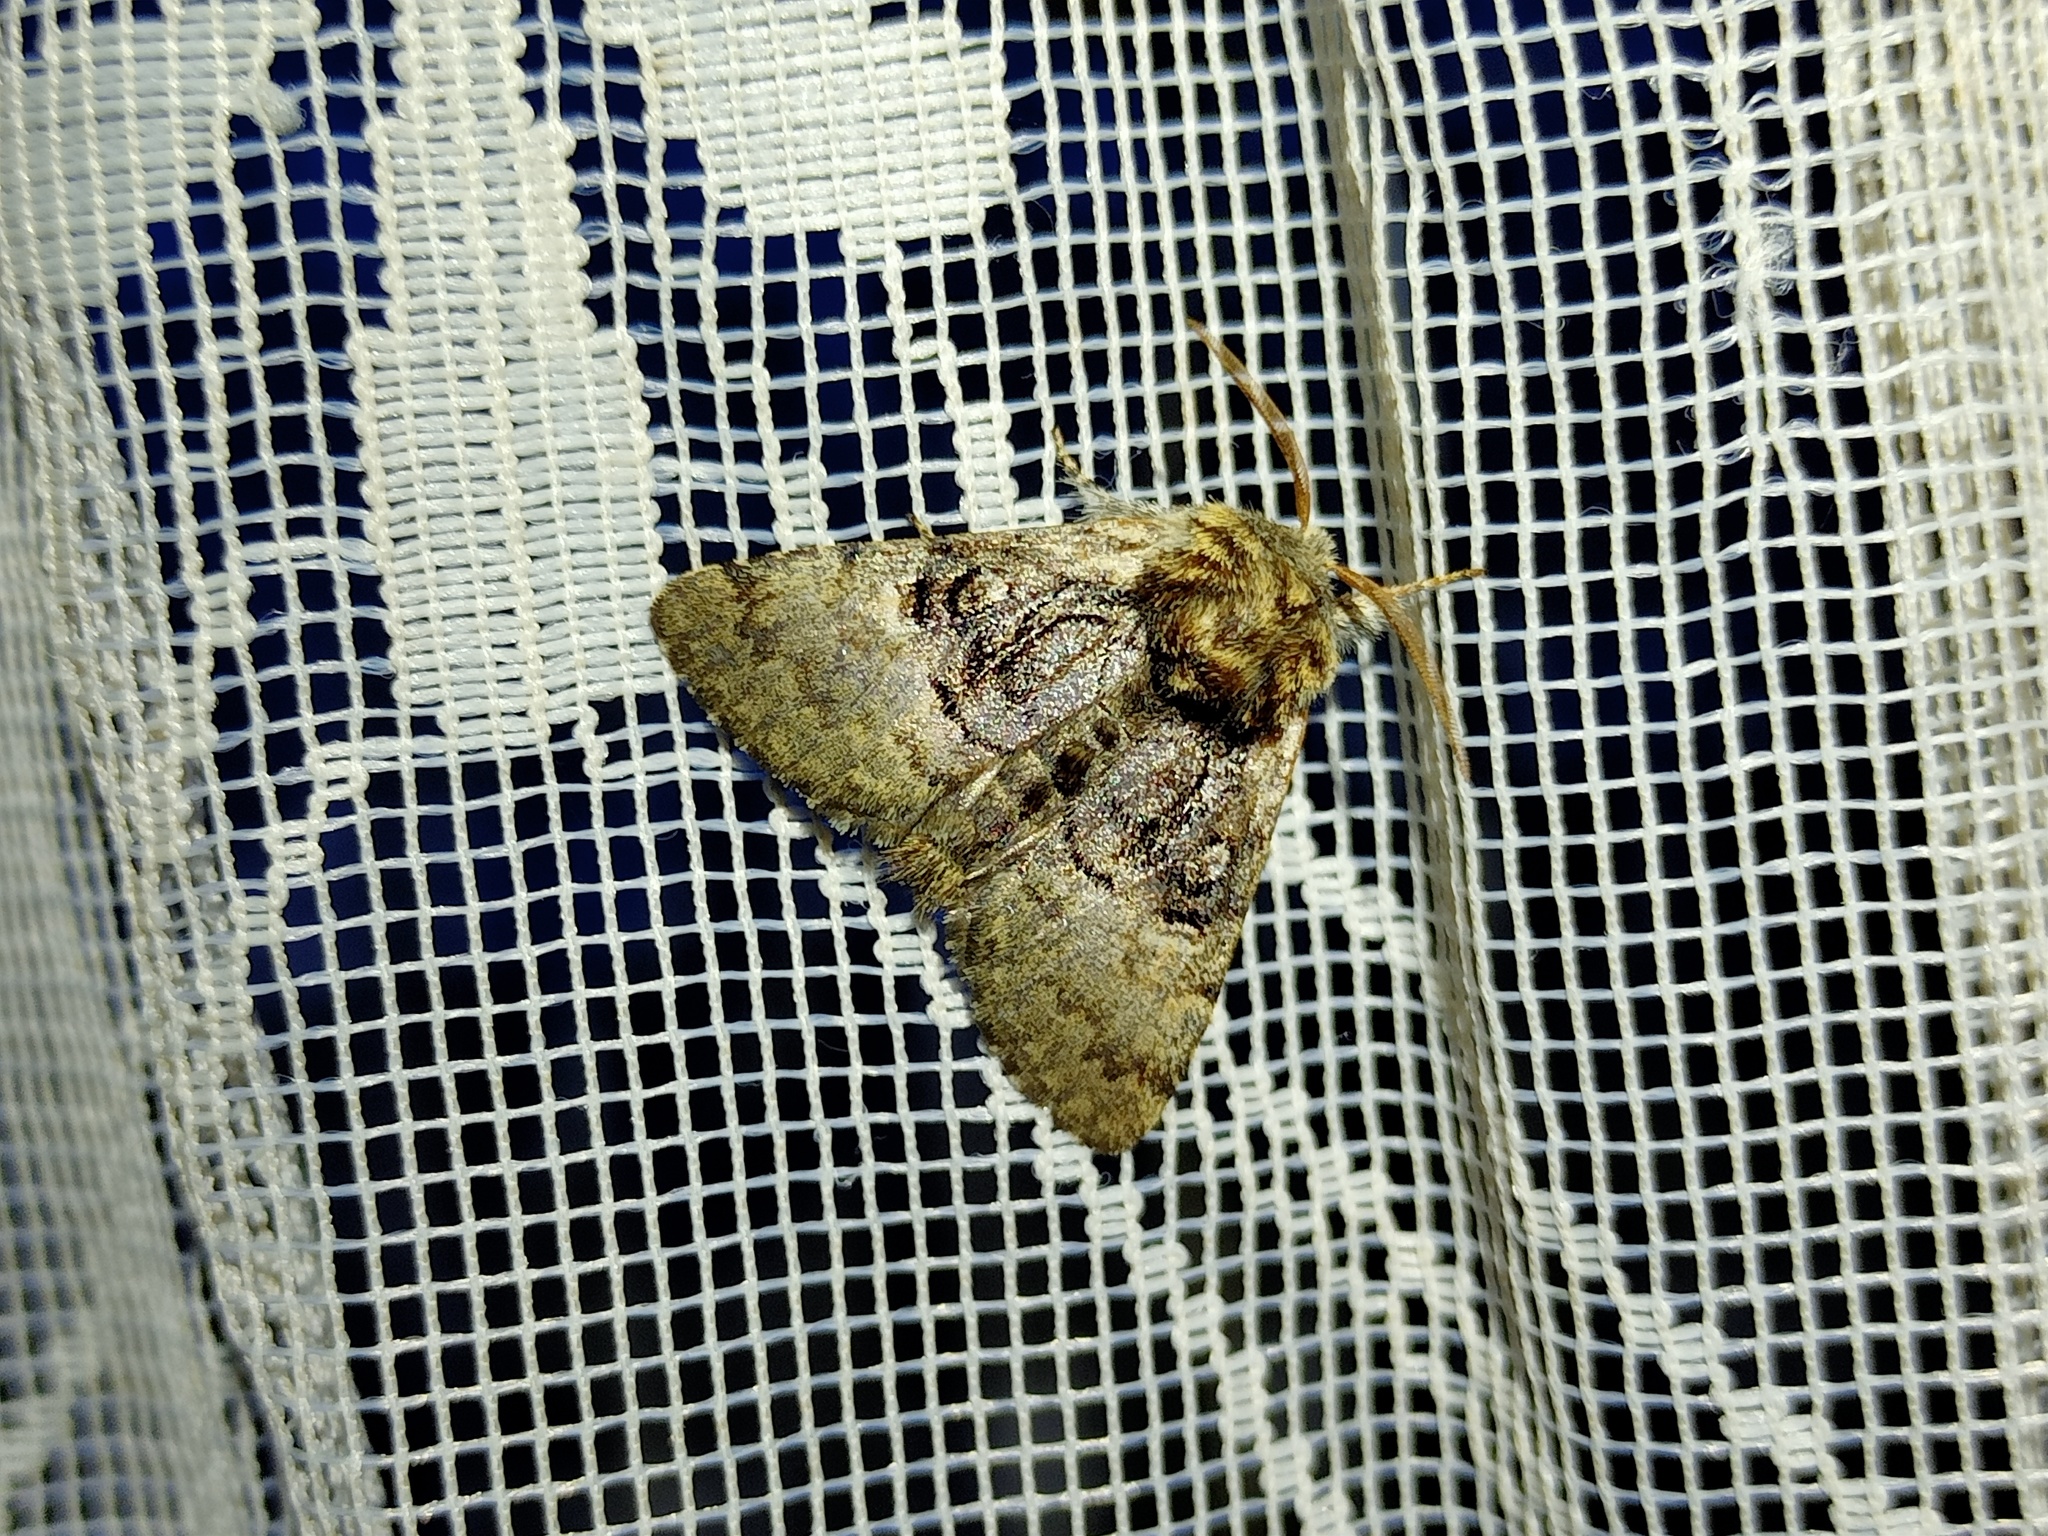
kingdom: Animalia
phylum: Arthropoda
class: Insecta
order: Lepidoptera
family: Noctuidae
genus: Colocasia
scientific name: Colocasia coryli
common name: Nut-tree tussock
